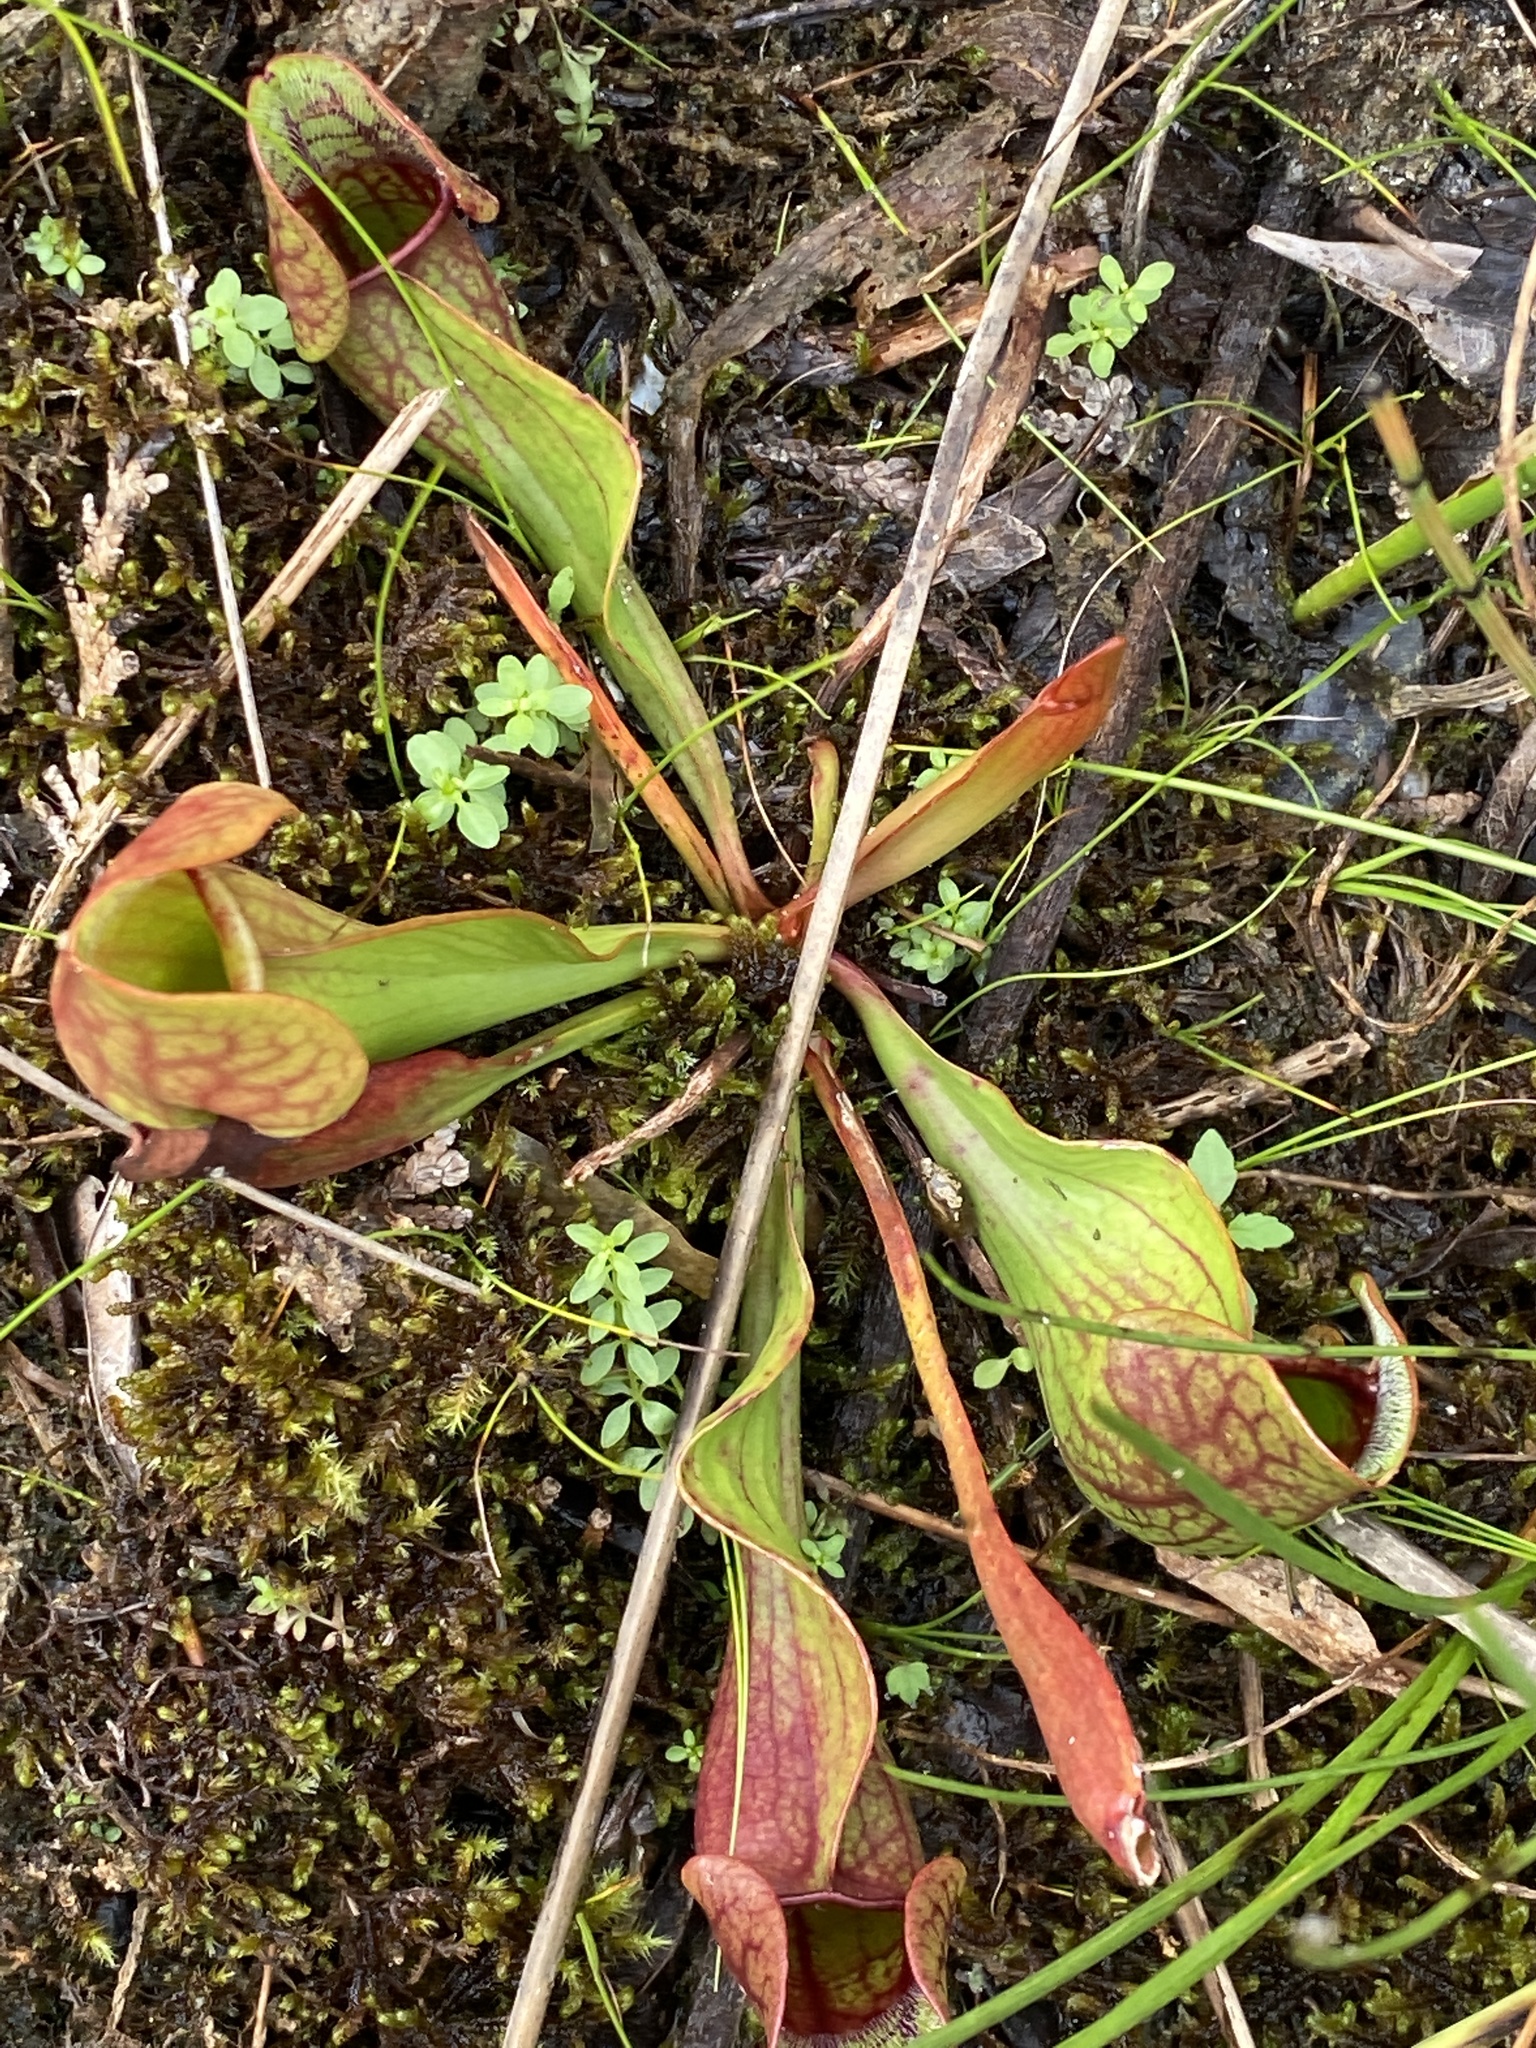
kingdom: Plantae
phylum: Tracheophyta
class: Magnoliopsida
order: Ericales
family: Sarraceniaceae
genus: Sarracenia
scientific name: Sarracenia purpurea
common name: Pitcherplant
